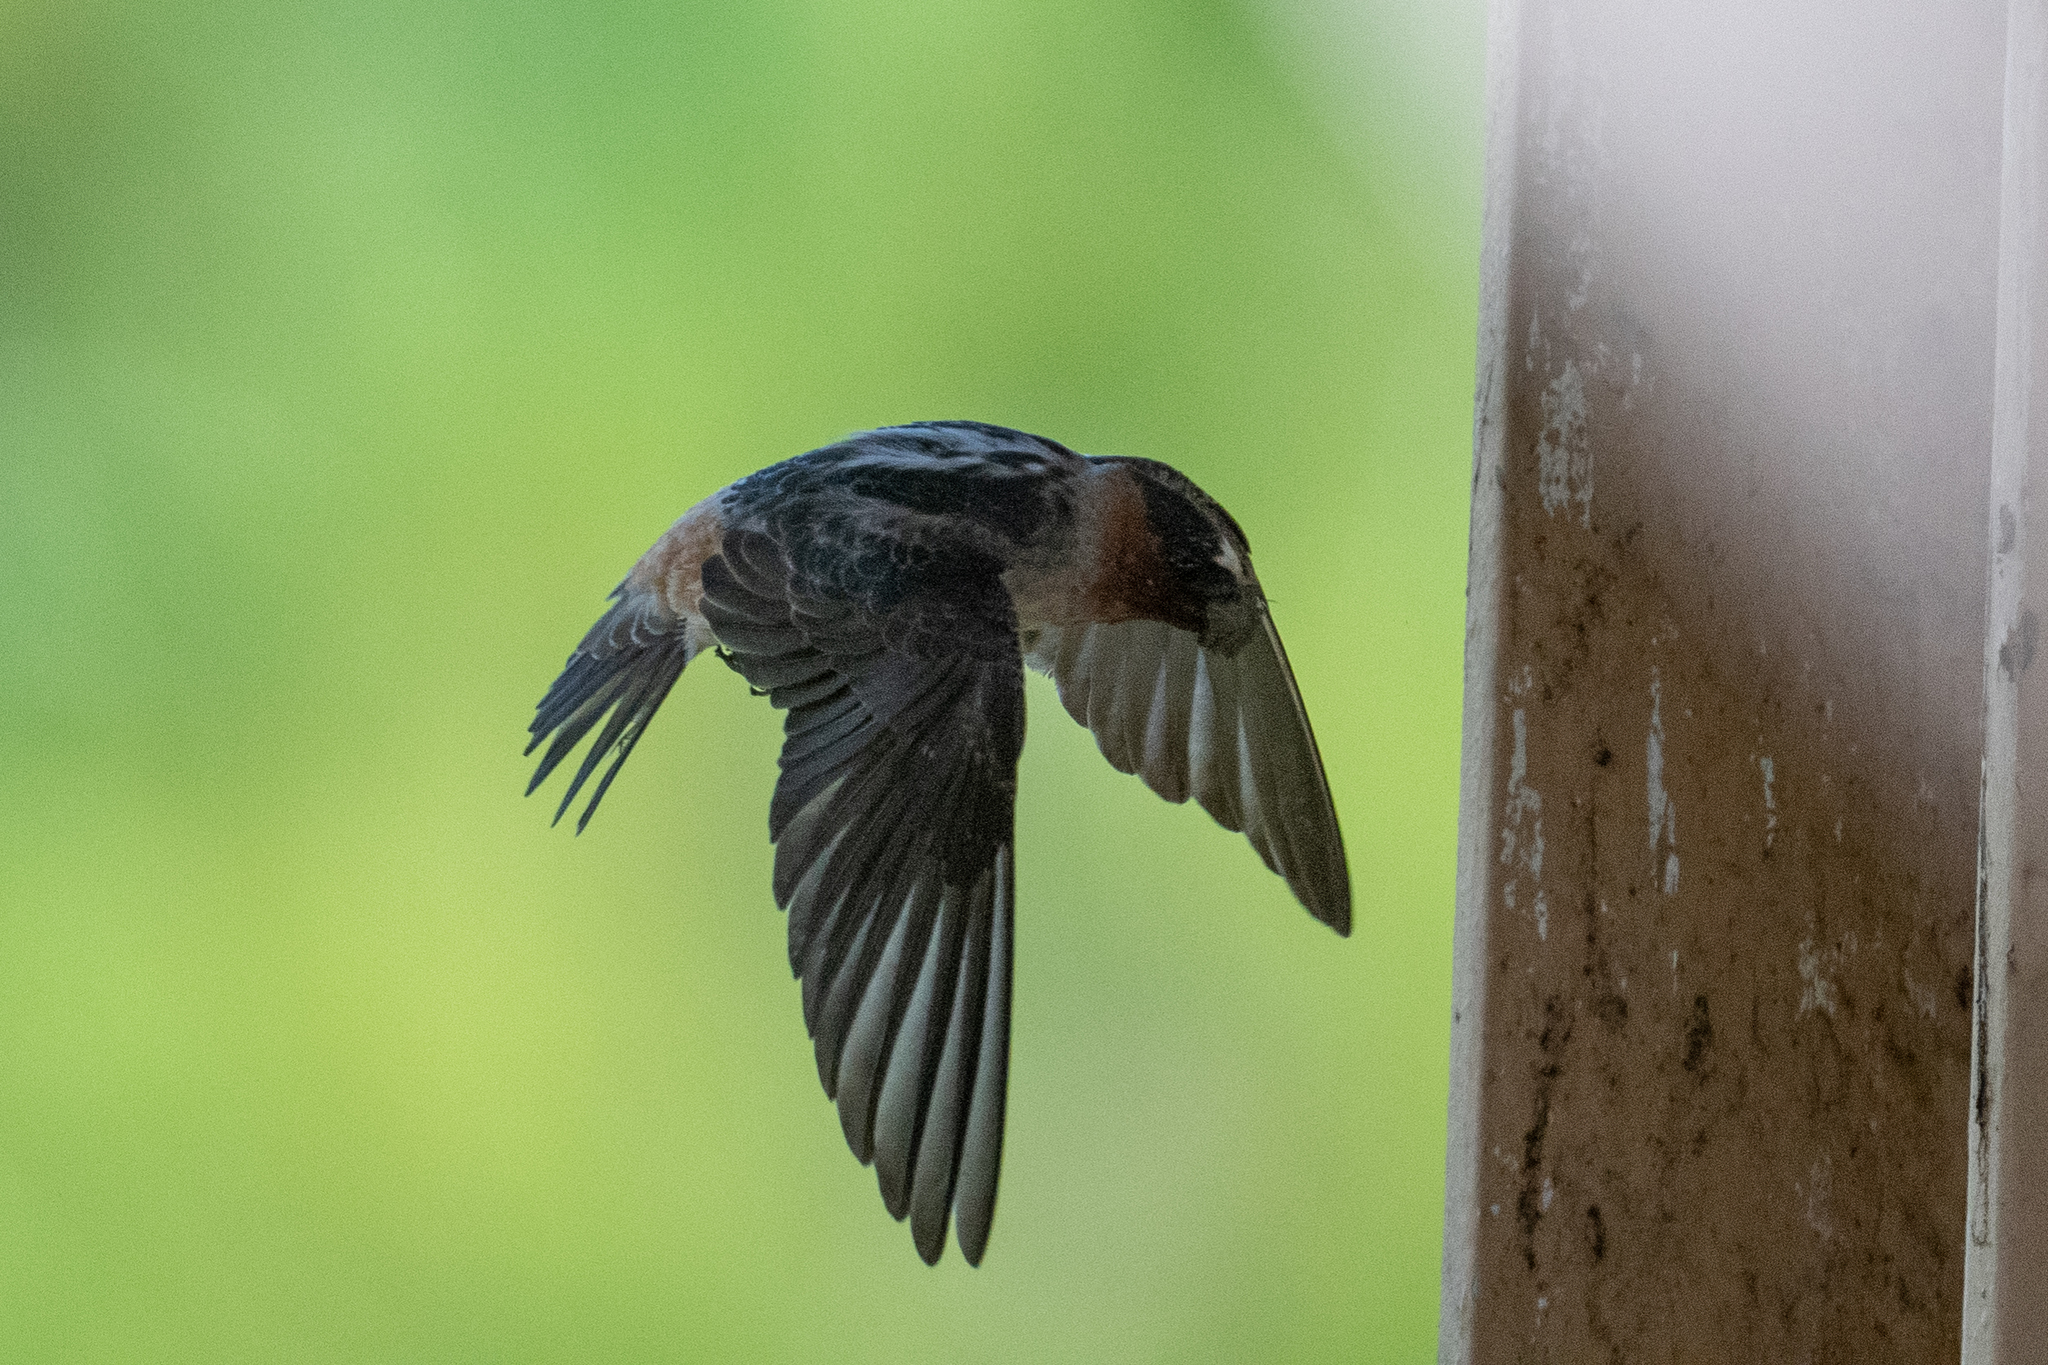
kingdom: Animalia
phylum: Chordata
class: Aves
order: Passeriformes
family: Hirundinidae
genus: Petrochelidon
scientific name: Petrochelidon pyrrhonota
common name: American cliff swallow
